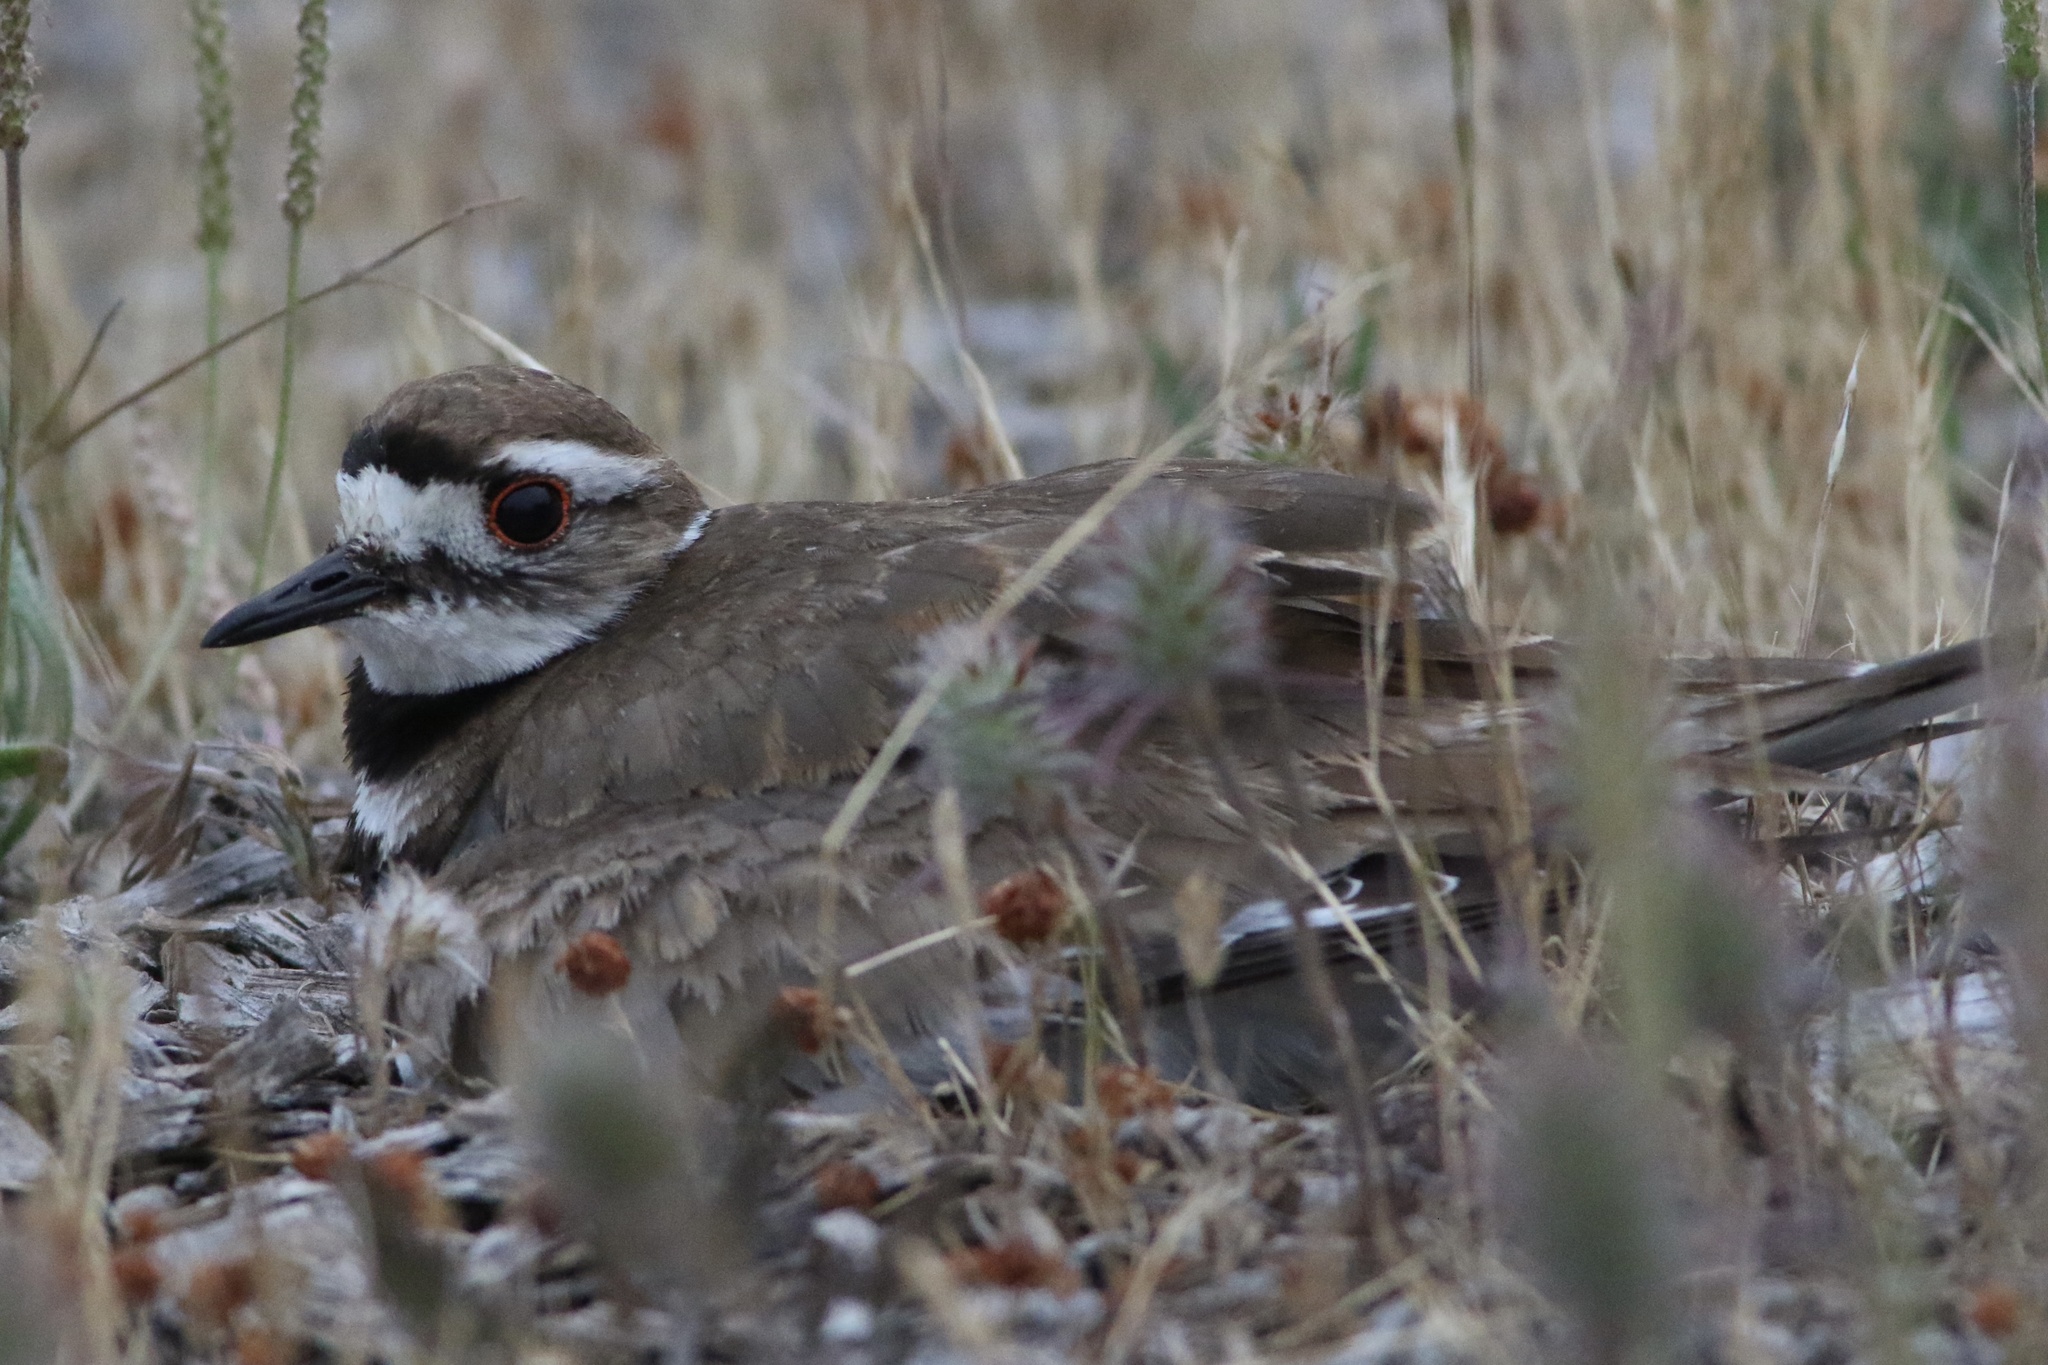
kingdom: Animalia
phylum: Chordata
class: Aves
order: Charadriiformes
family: Charadriidae
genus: Charadrius
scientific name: Charadrius vociferus
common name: Killdeer
